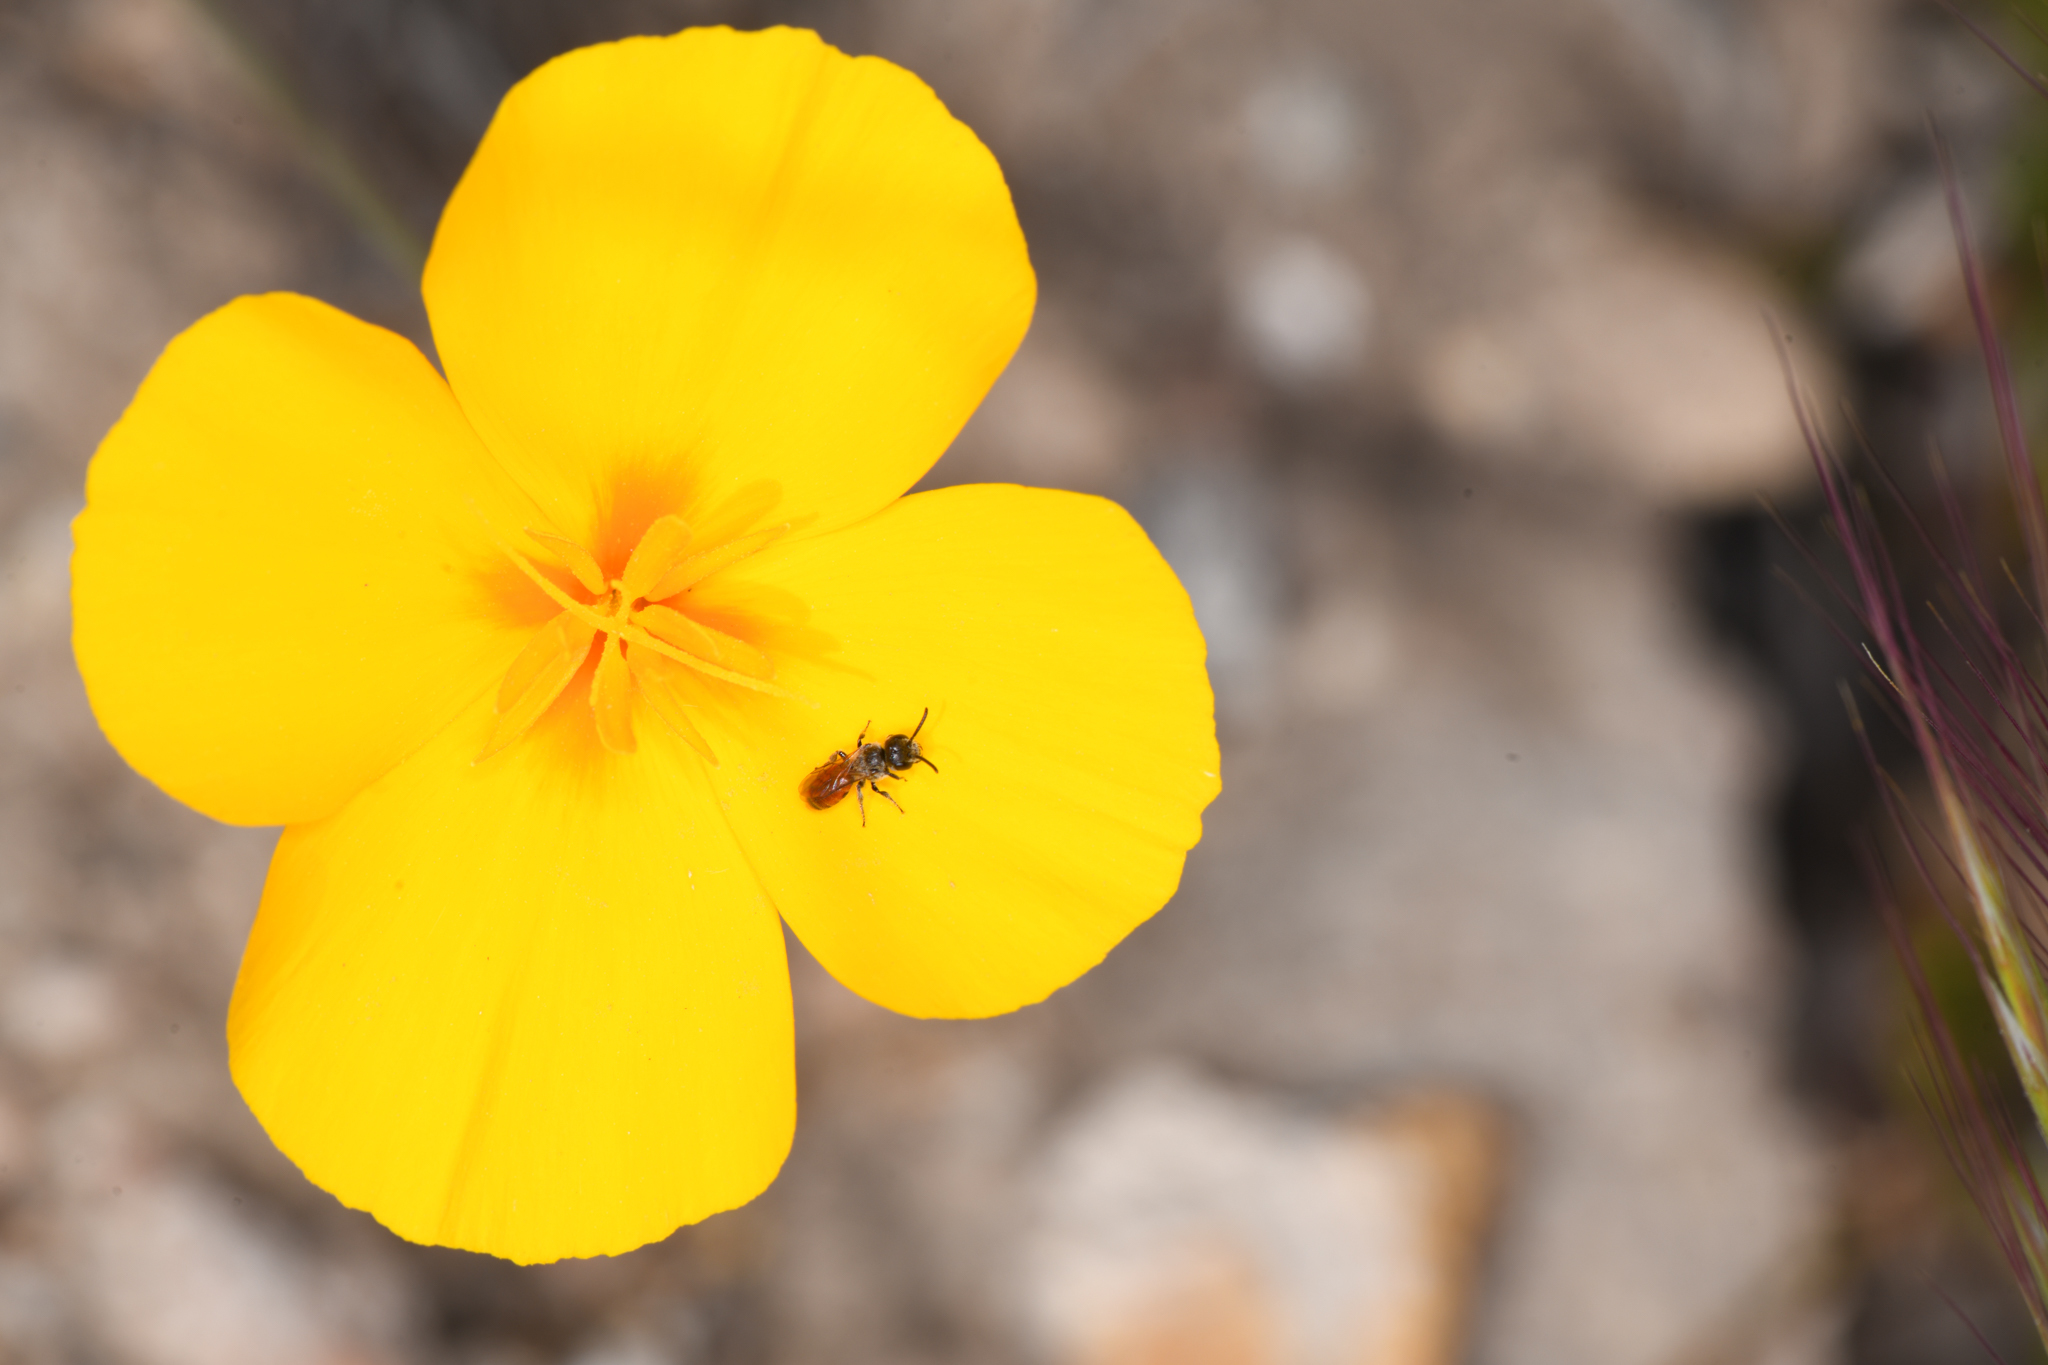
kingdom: Animalia
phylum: Arthropoda
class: Insecta
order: Hymenoptera
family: Halictidae
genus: Micralictoides
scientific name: Micralictoides ruficaudus
